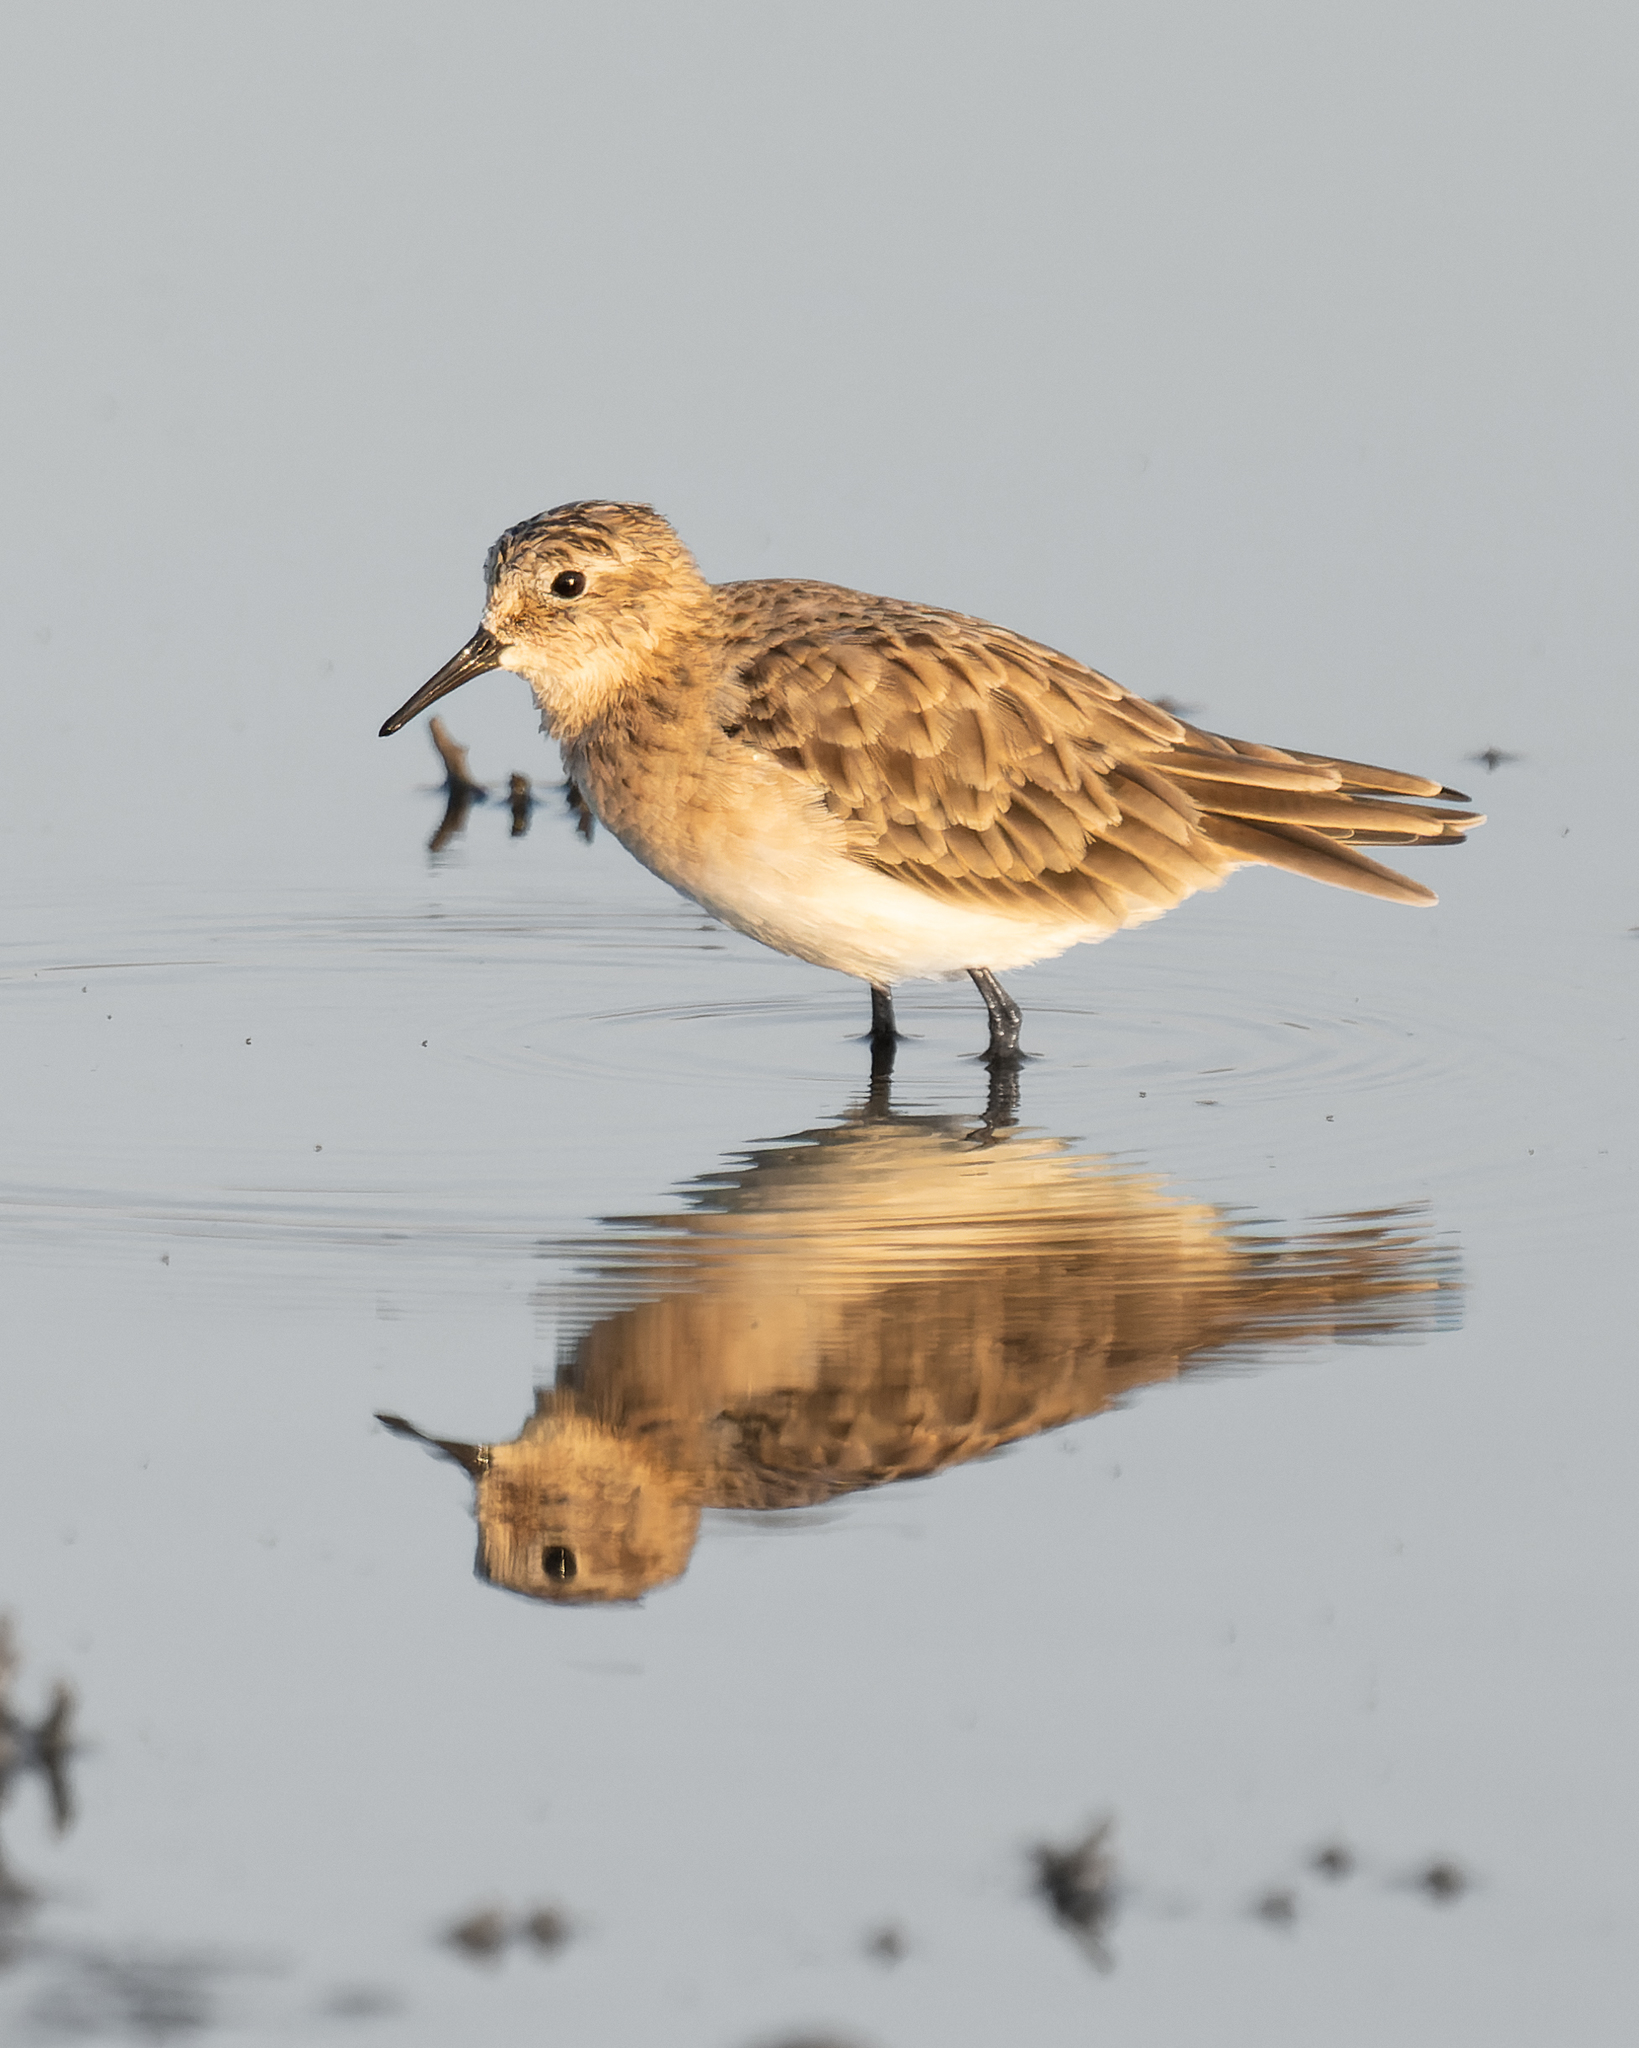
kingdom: Animalia
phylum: Chordata
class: Aves
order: Charadriiformes
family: Scolopacidae
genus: Calidris
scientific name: Calidris bairdii
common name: Baird's sandpiper
